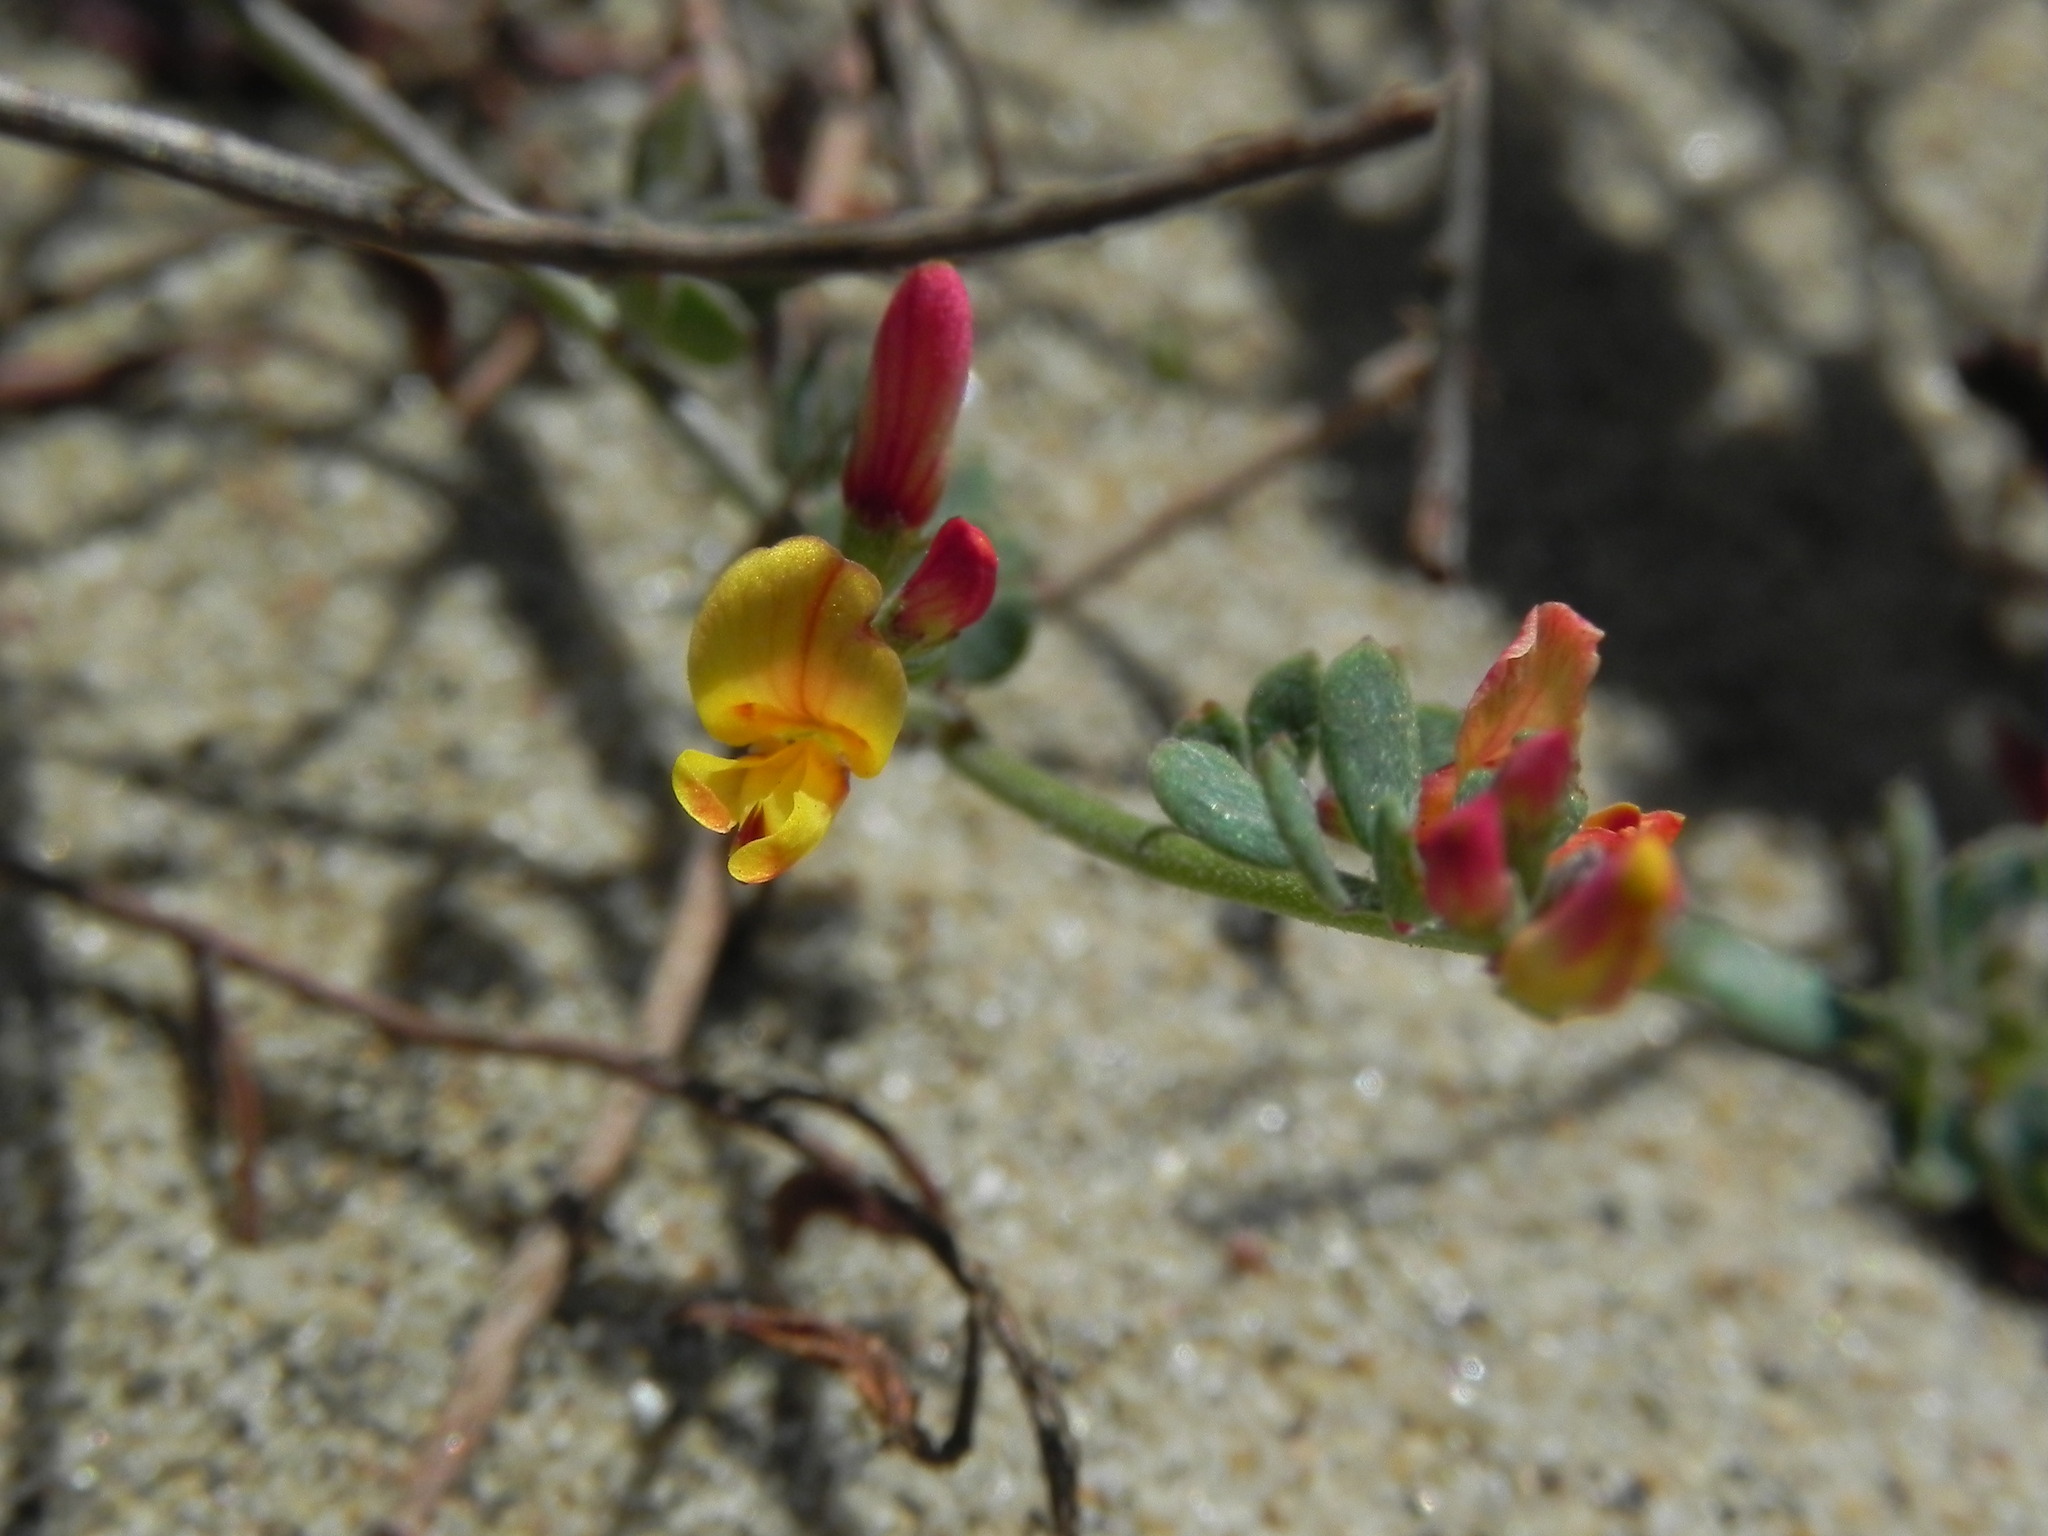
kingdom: Plantae
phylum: Tracheophyta
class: Magnoliopsida
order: Fabales
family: Fabaceae
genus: Acmispon
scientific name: Acmispon prostratus
